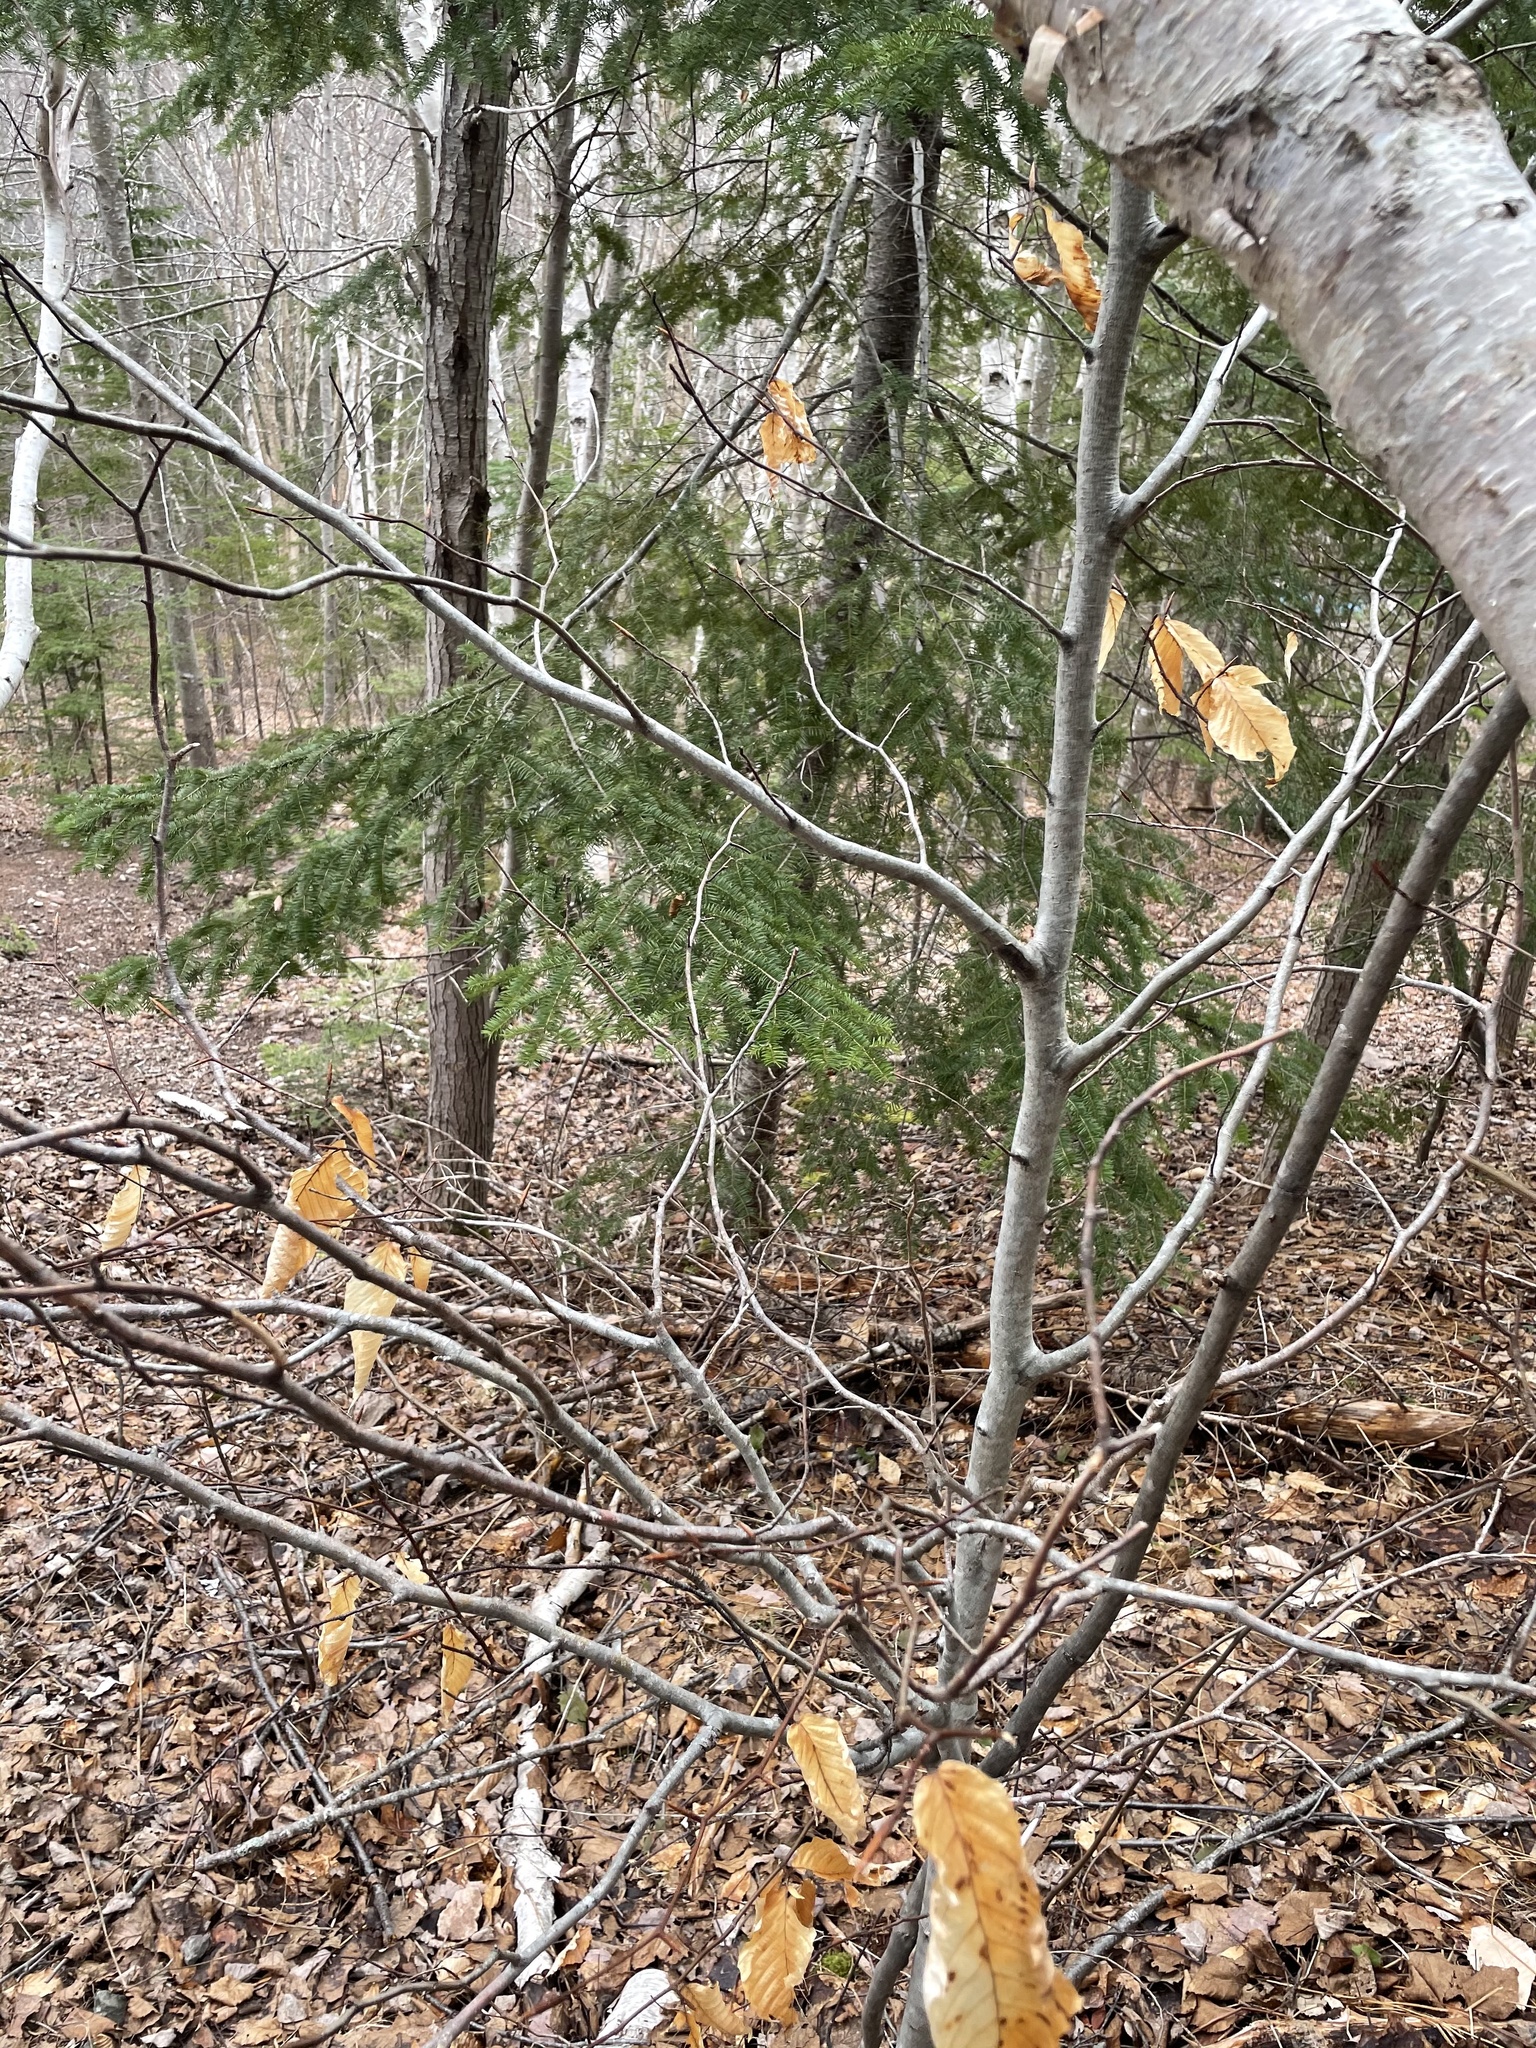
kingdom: Plantae
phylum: Tracheophyta
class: Magnoliopsida
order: Fagales
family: Fagaceae
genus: Fagus
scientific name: Fagus grandifolia
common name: American beech
